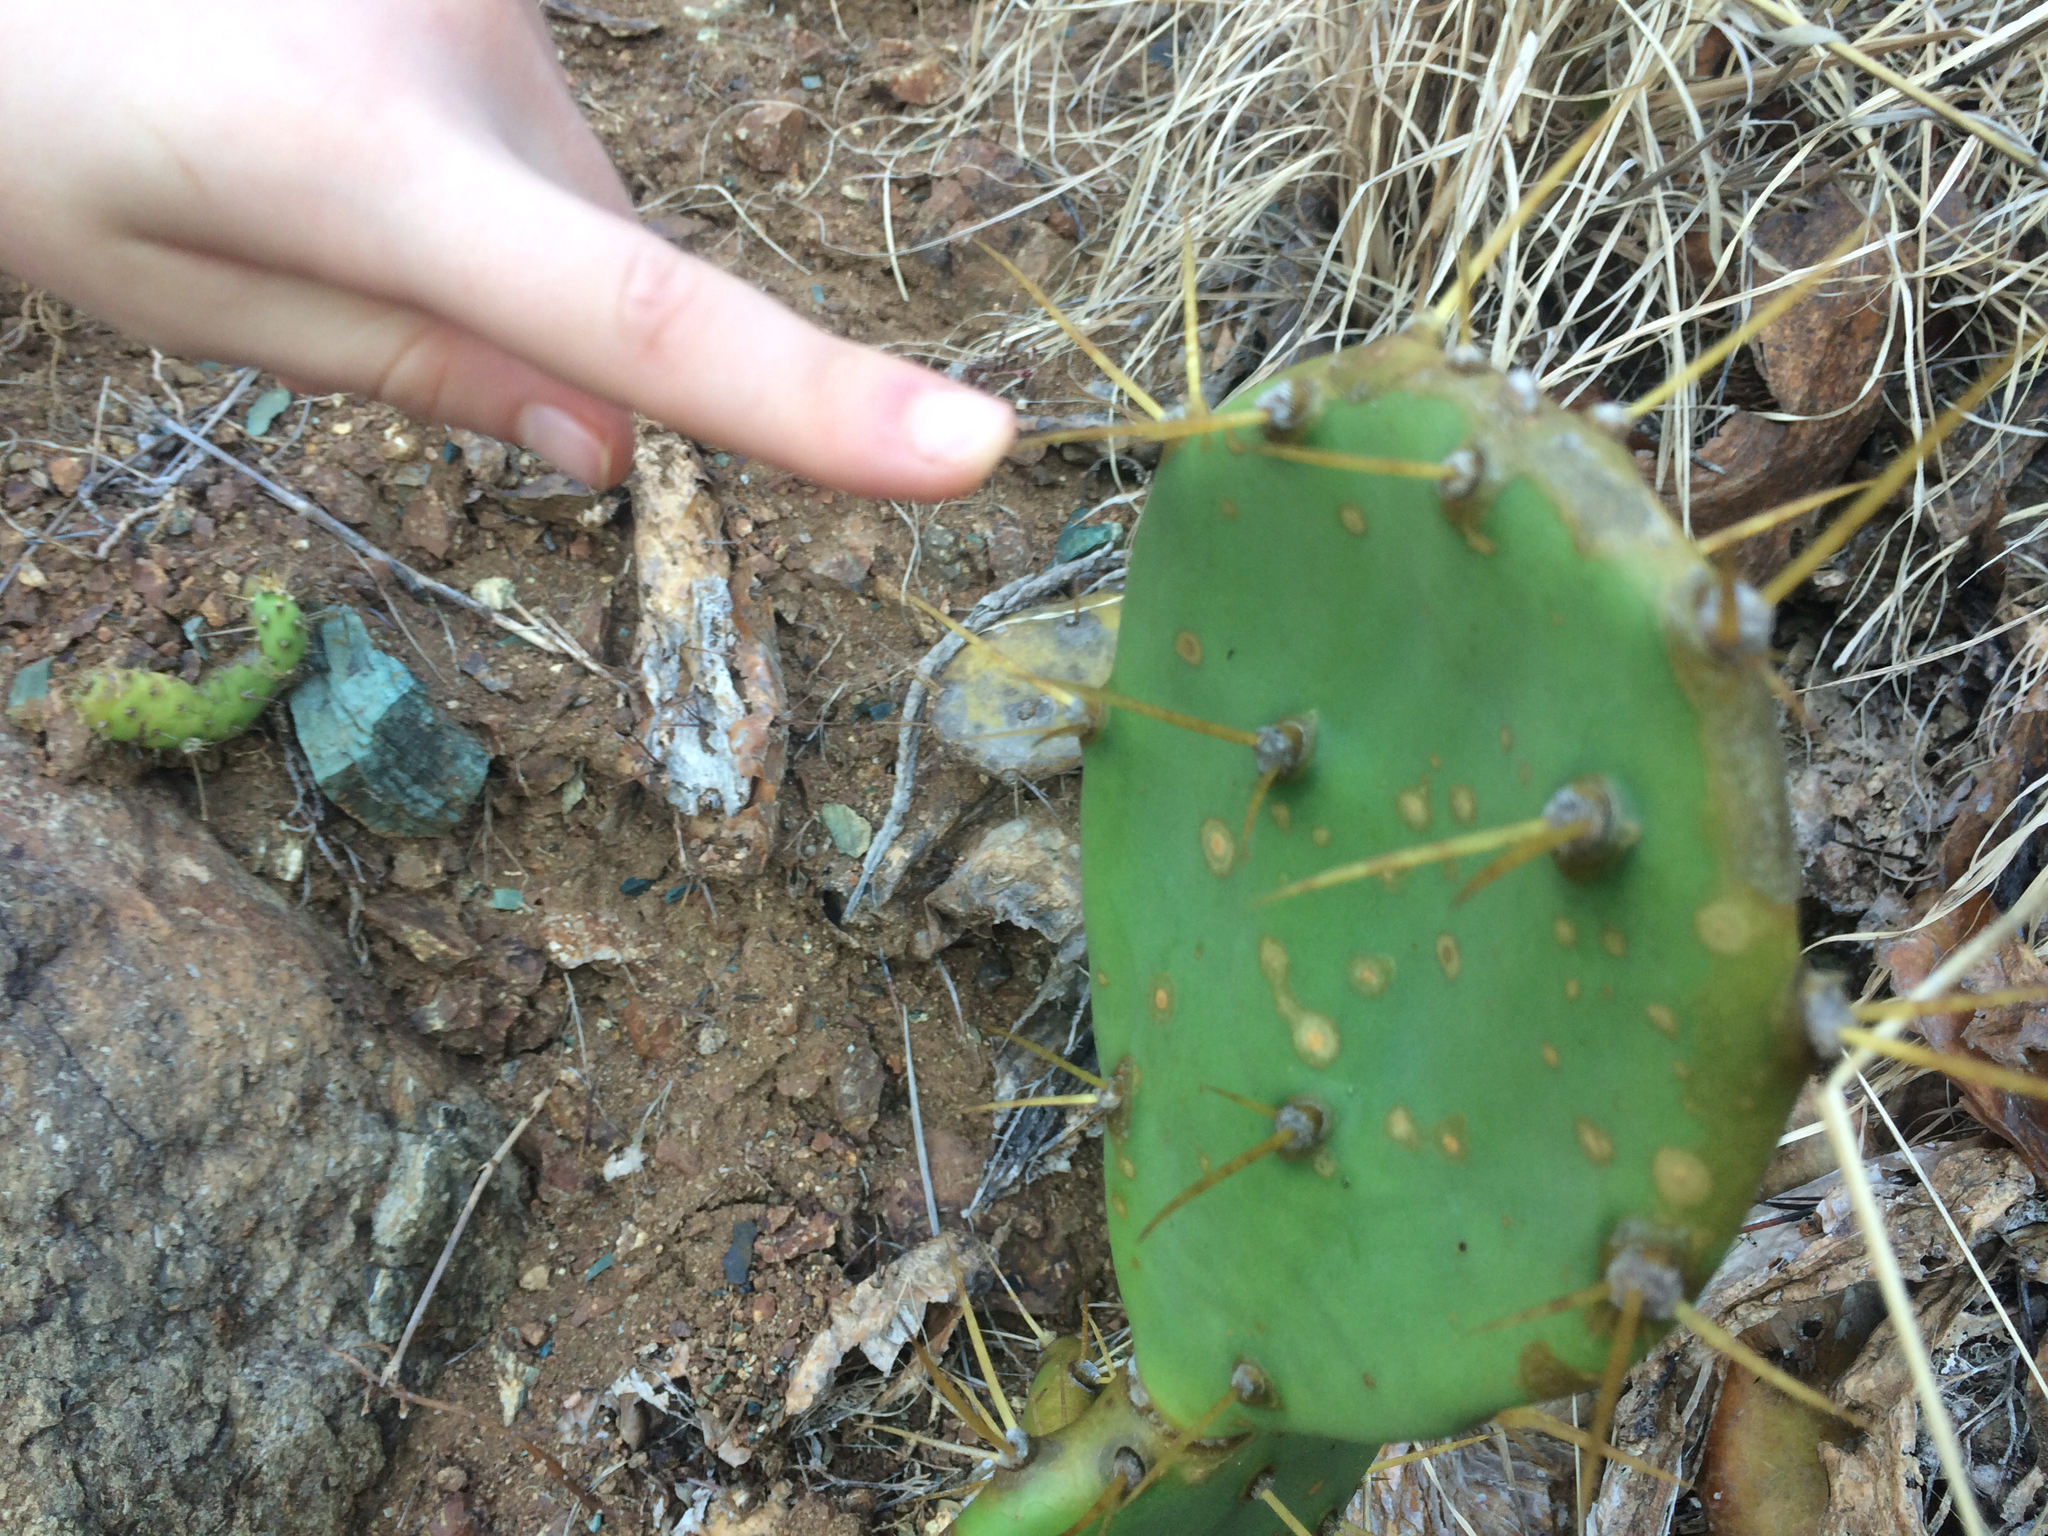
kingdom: Plantae
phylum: Tracheophyta
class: Magnoliopsida
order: Caryophyllales
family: Cactaceae
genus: Opuntia
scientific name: Opuntia stricta
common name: Erect pricklypear
